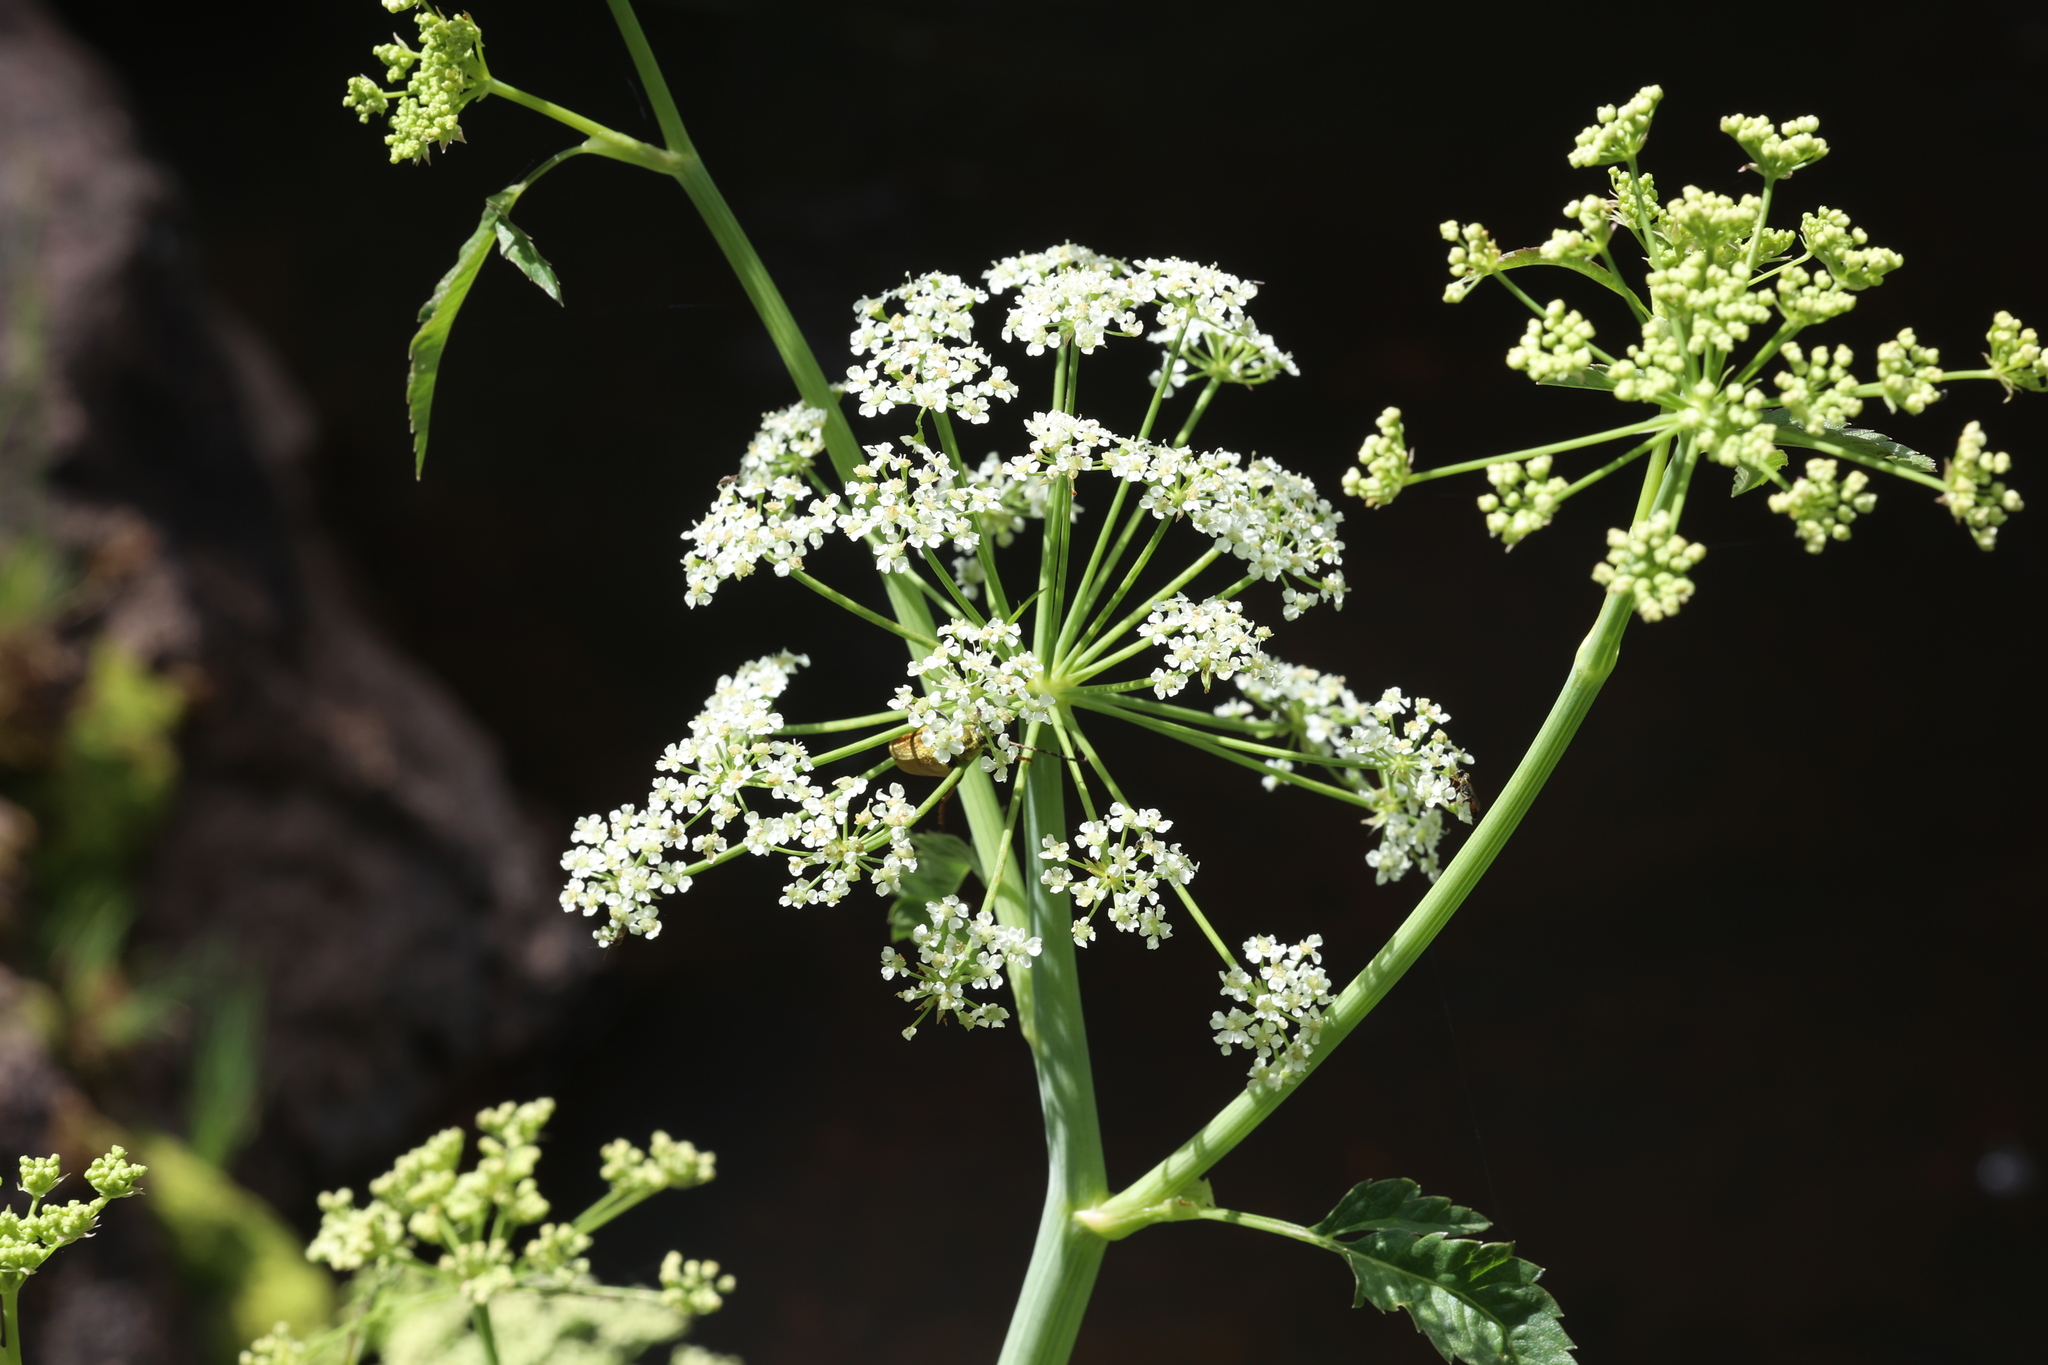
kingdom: Plantae
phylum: Tracheophyta
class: Magnoliopsida
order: Apiales
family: Apiaceae
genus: Cicuta
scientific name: Cicuta maculata
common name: Spotted cowbane
